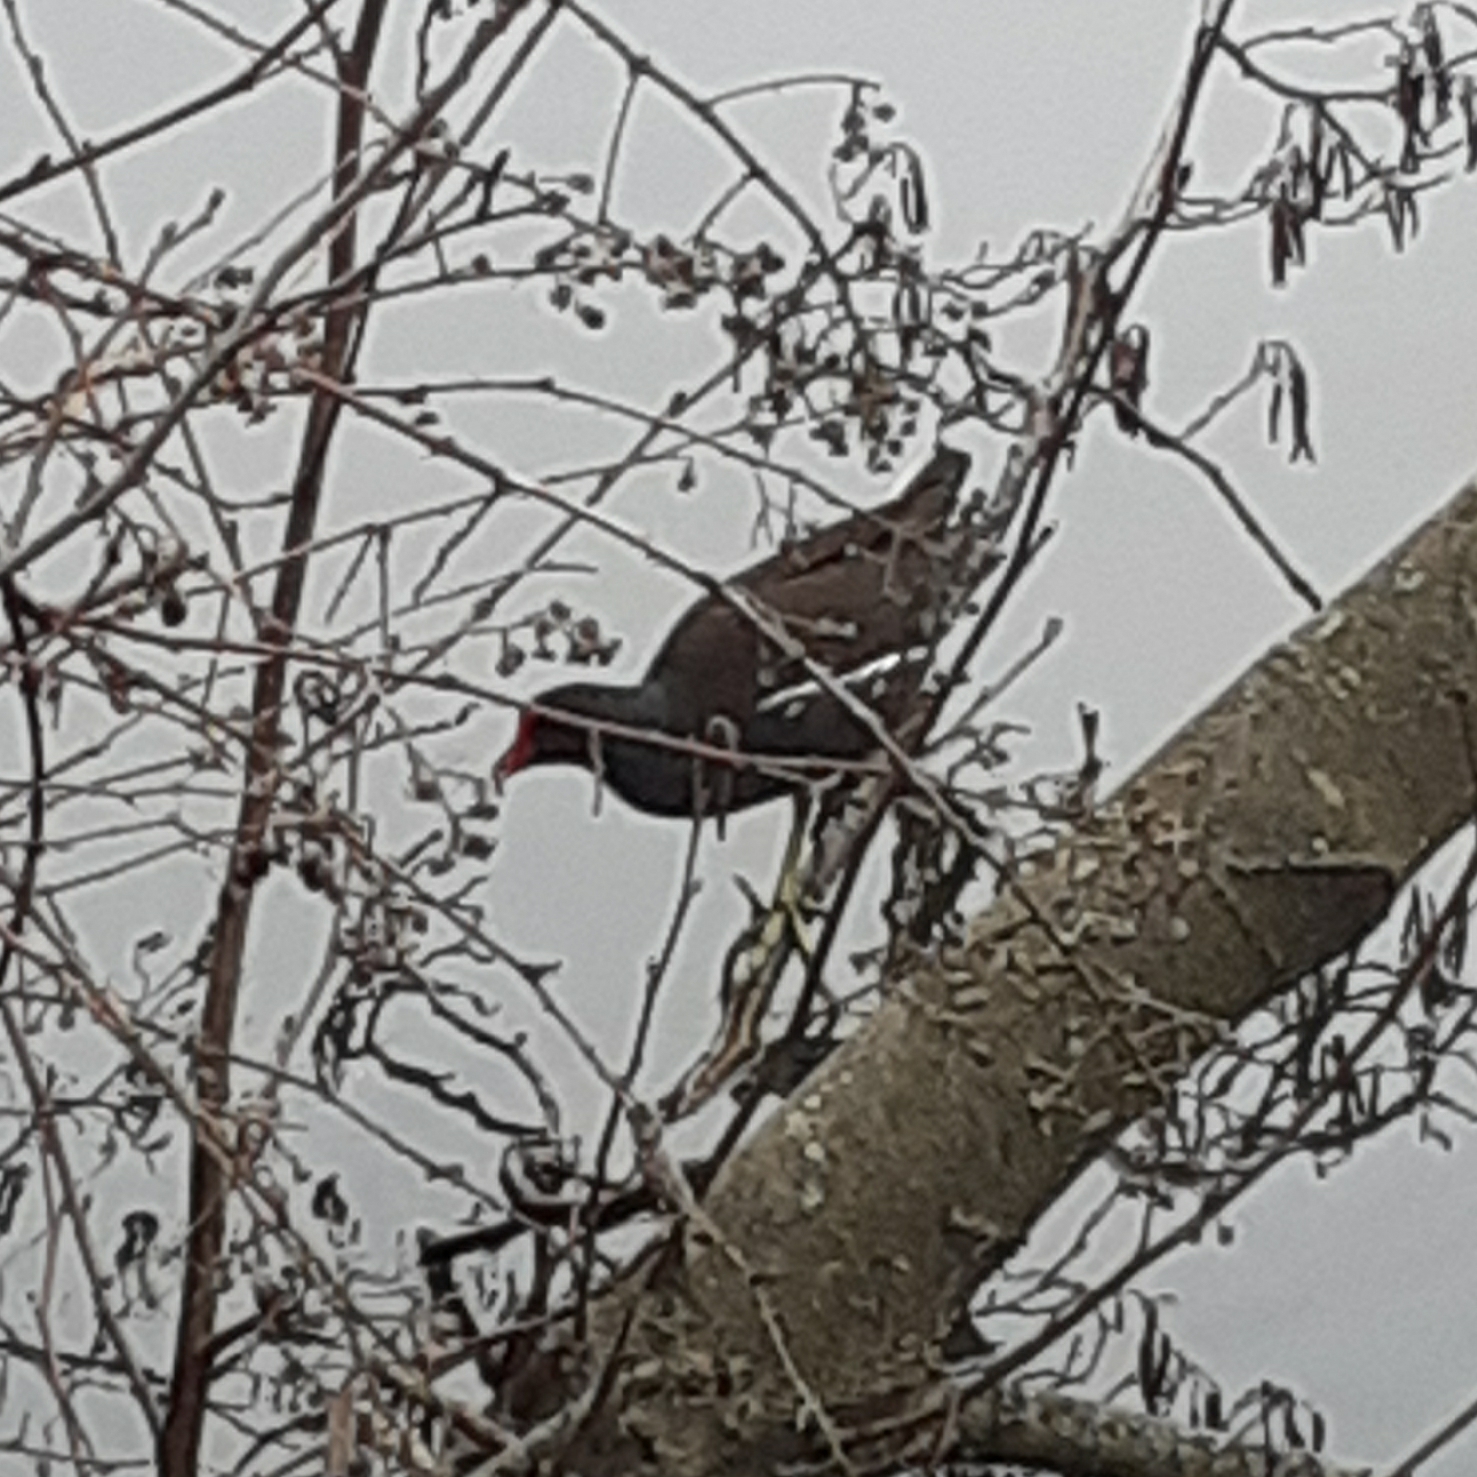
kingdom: Animalia
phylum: Chordata
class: Aves
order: Gruiformes
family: Rallidae
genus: Gallinula
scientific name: Gallinula chloropus
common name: Common moorhen
